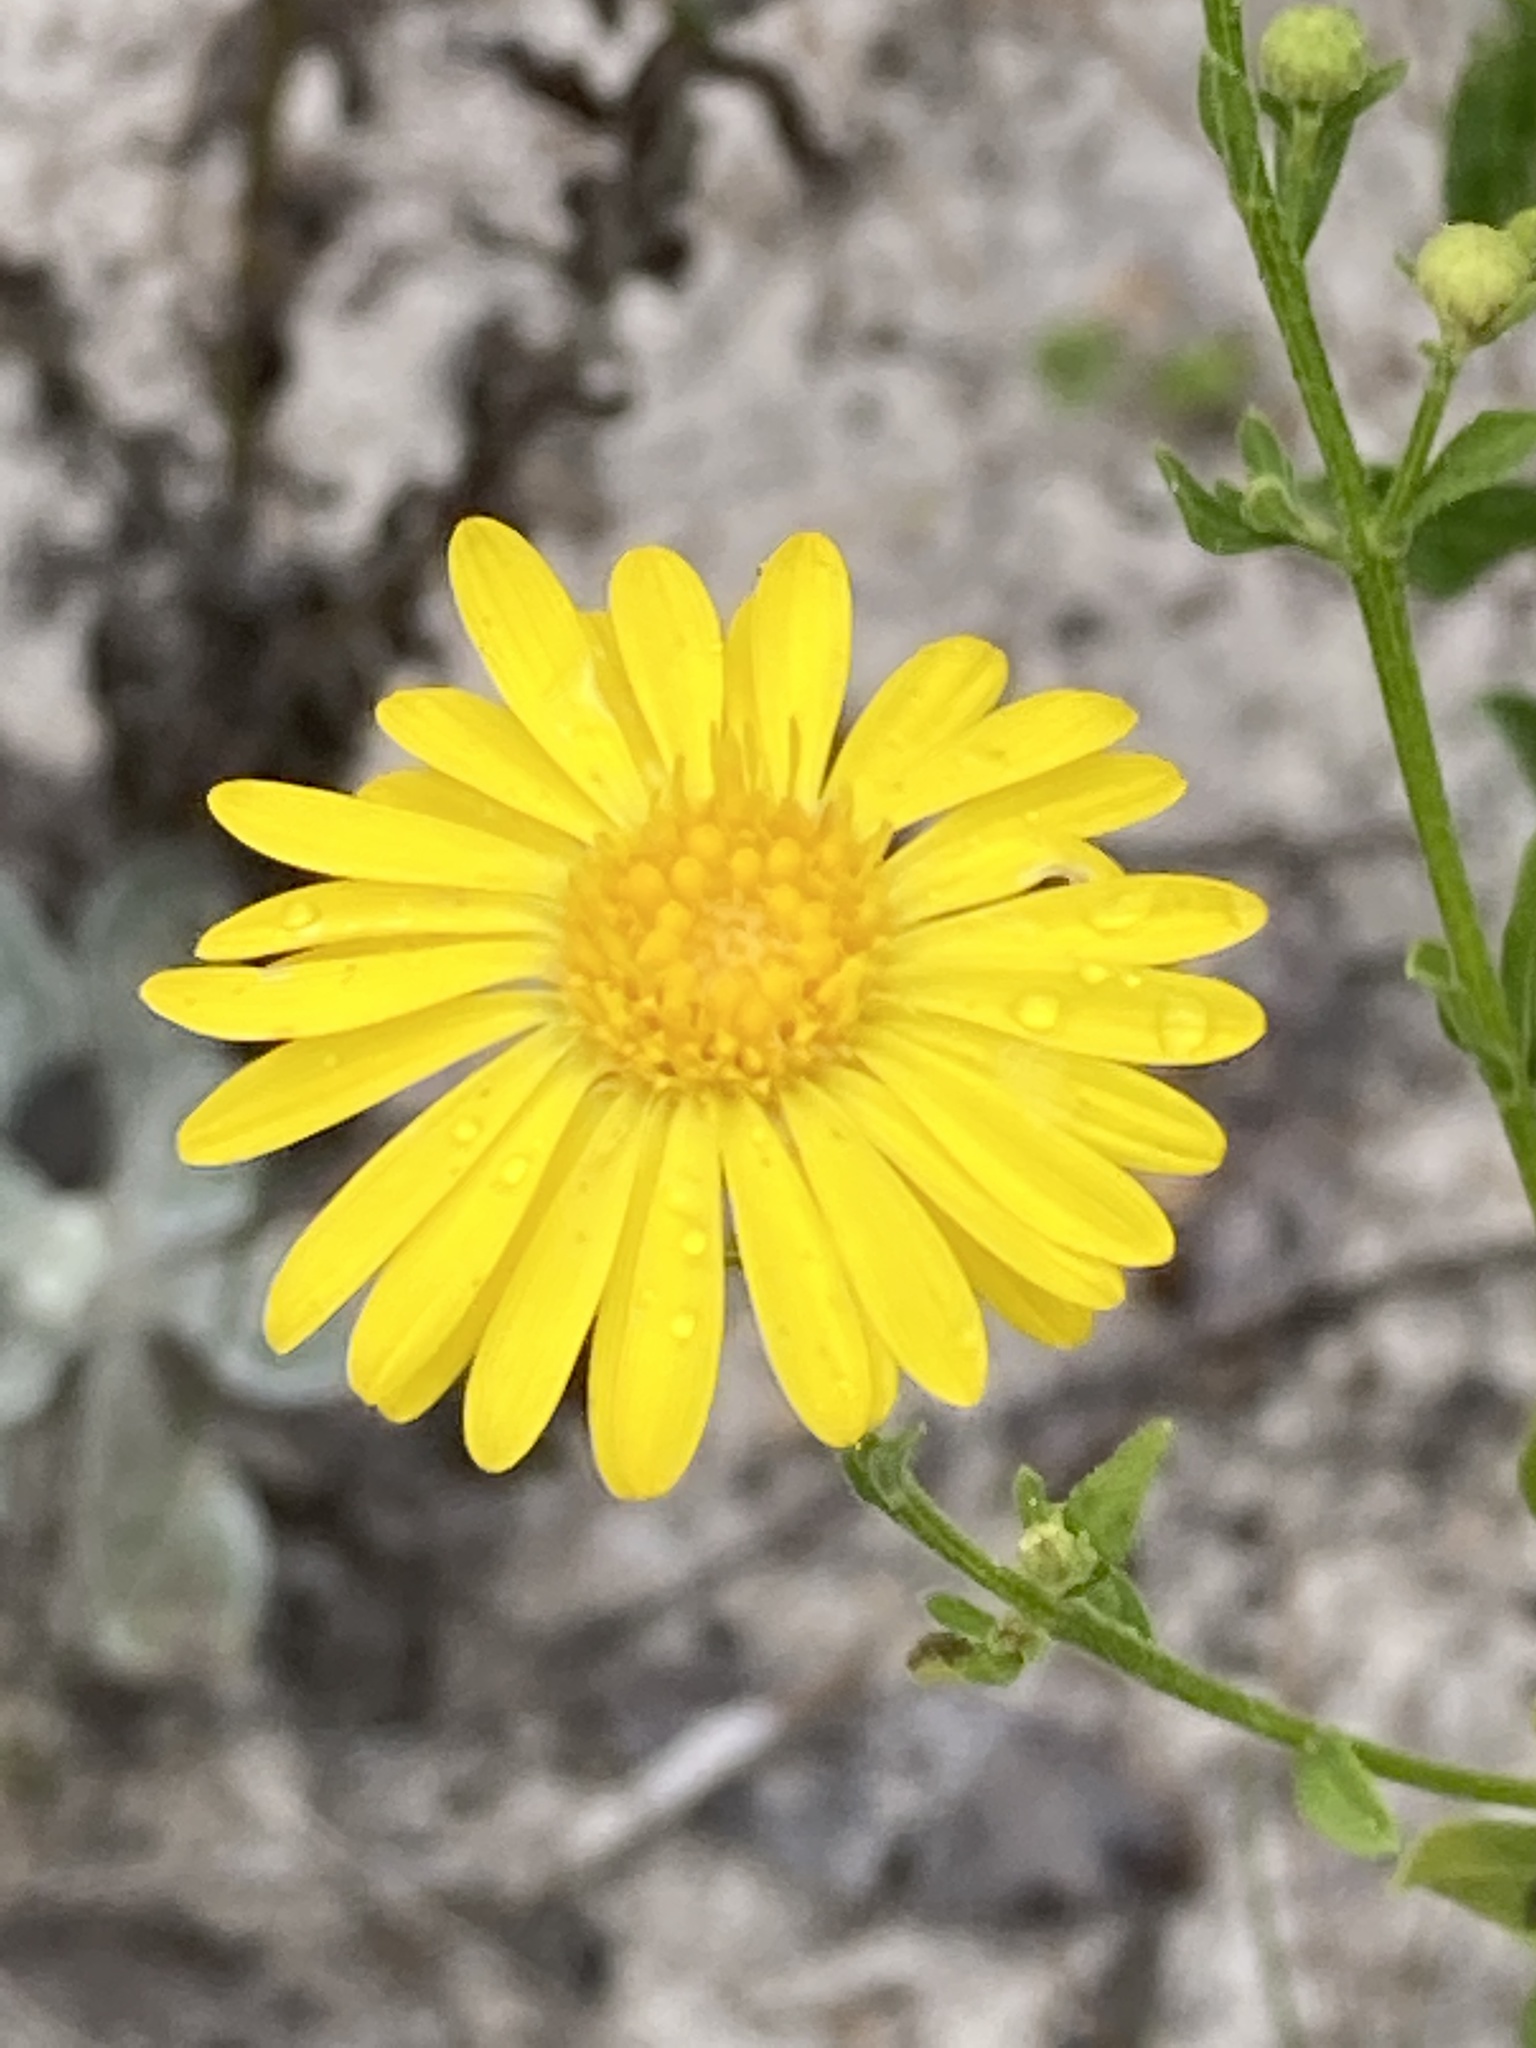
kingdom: Plantae
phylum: Tracheophyta
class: Magnoliopsida
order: Asterales
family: Asteraceae
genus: Chrysopsis
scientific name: Chrysopsis scabrella
